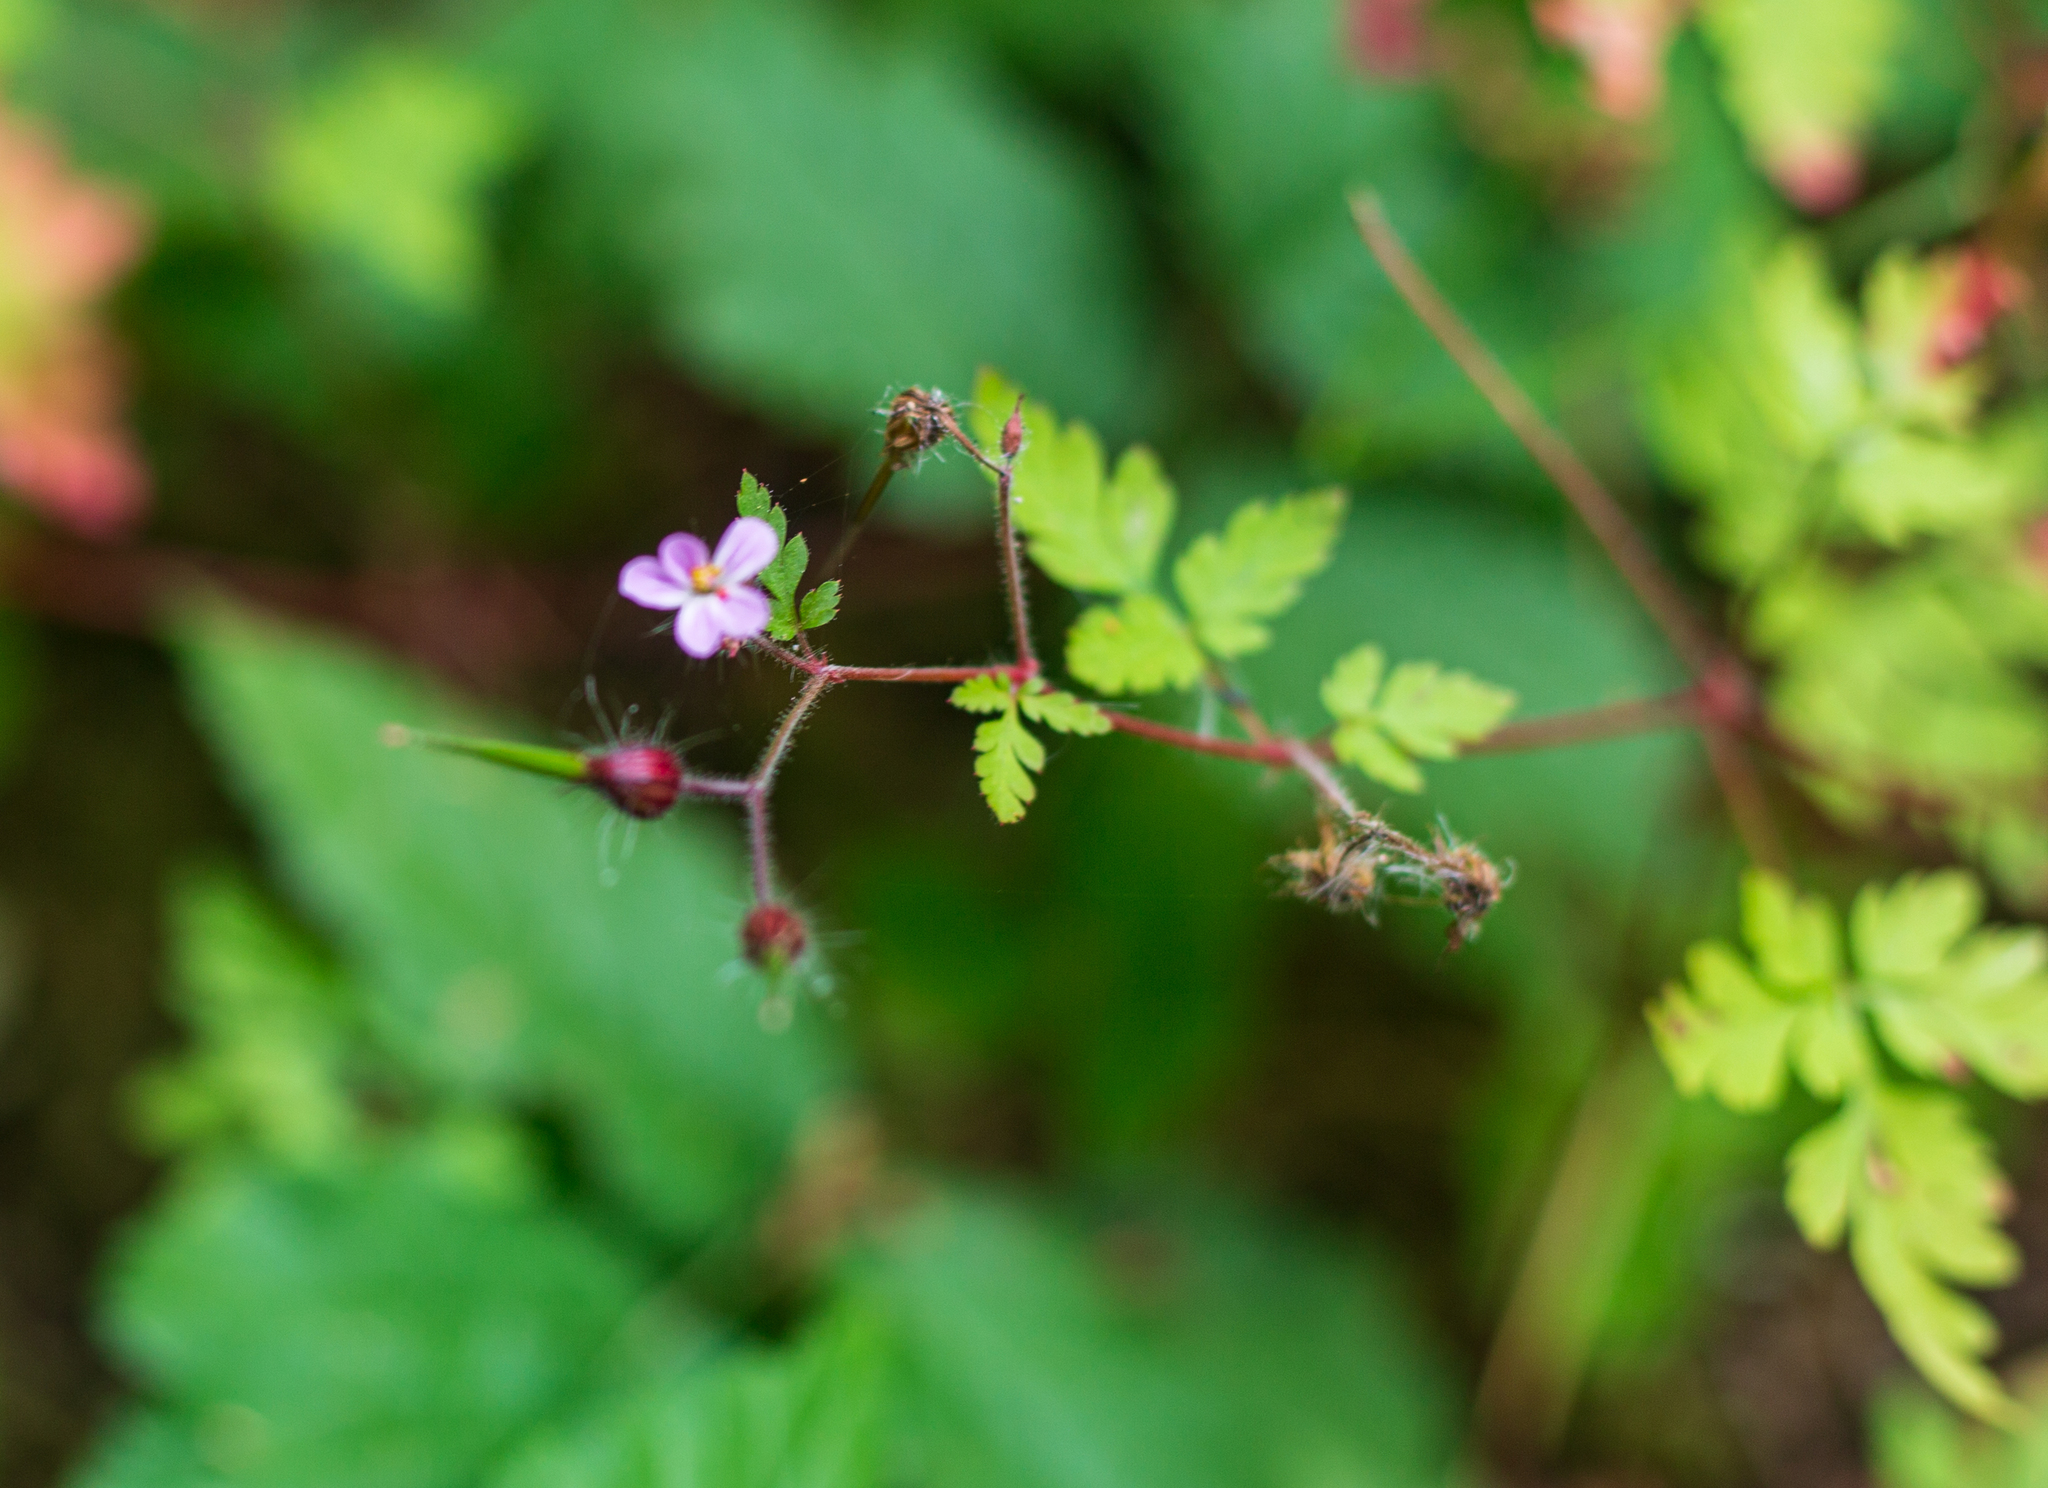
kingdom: Plantae
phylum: Tracheophyta
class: Magnoliopsida
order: Geraniales
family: Geraniaceae
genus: Geranium
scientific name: Geranium robertianum
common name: Herb-robert
